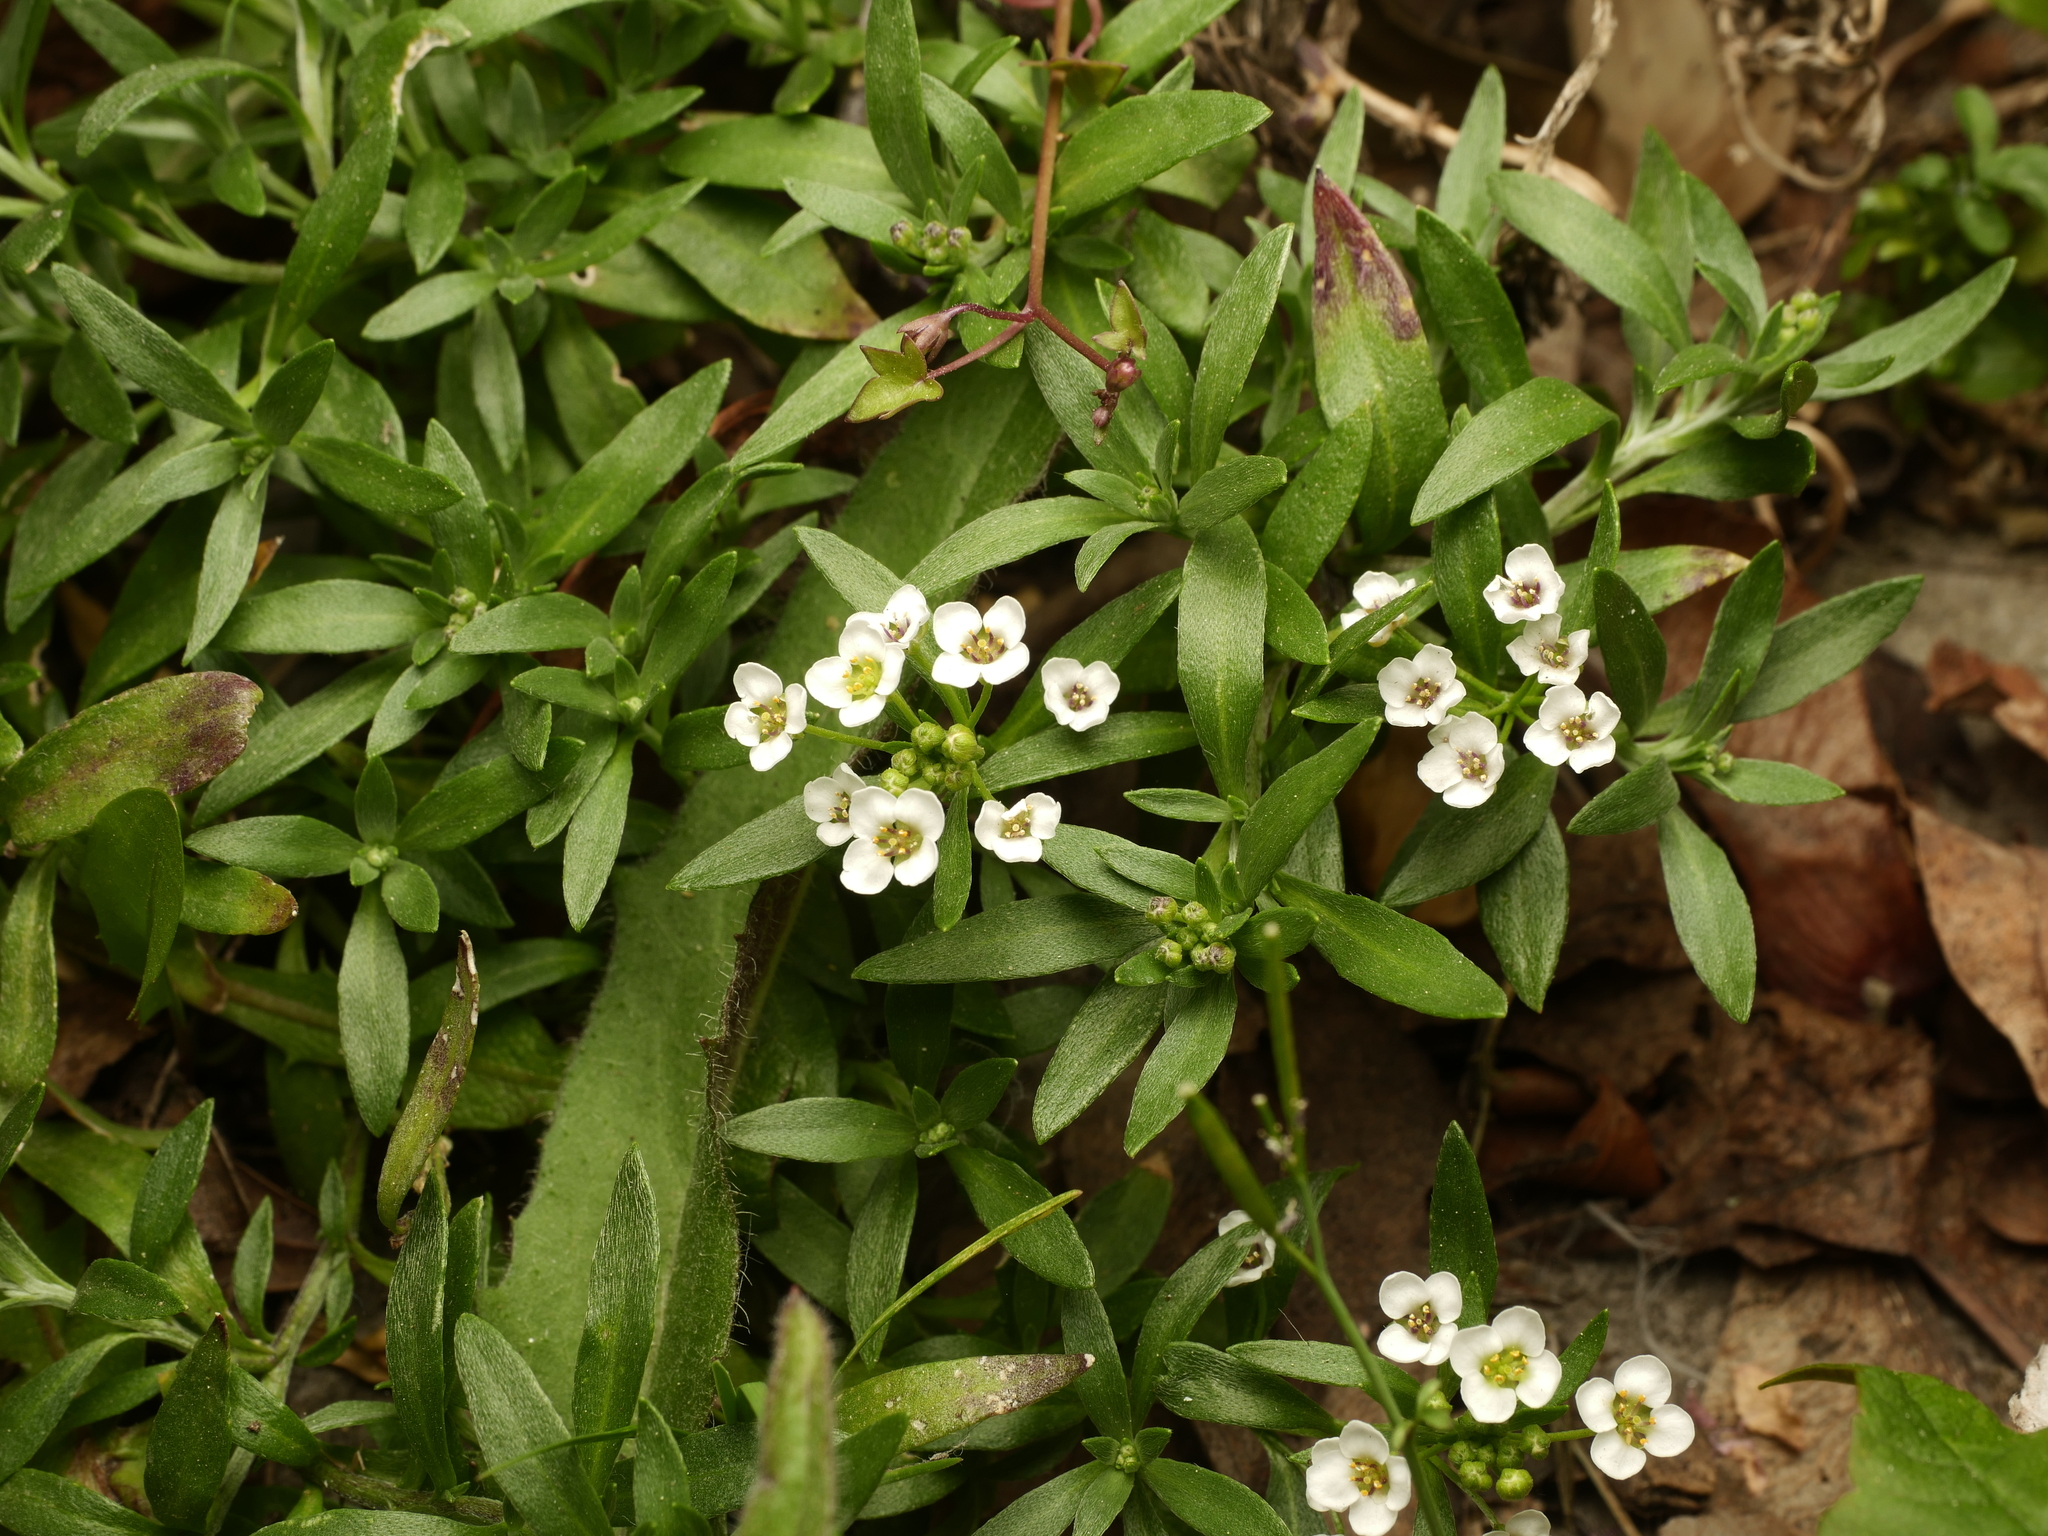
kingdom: Plantae
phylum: Tracheophyta
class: Magnoliopsida
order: Brassicales
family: Brassicaceae
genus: Lobularia
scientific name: Lobularia maritima
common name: Sweet alison
